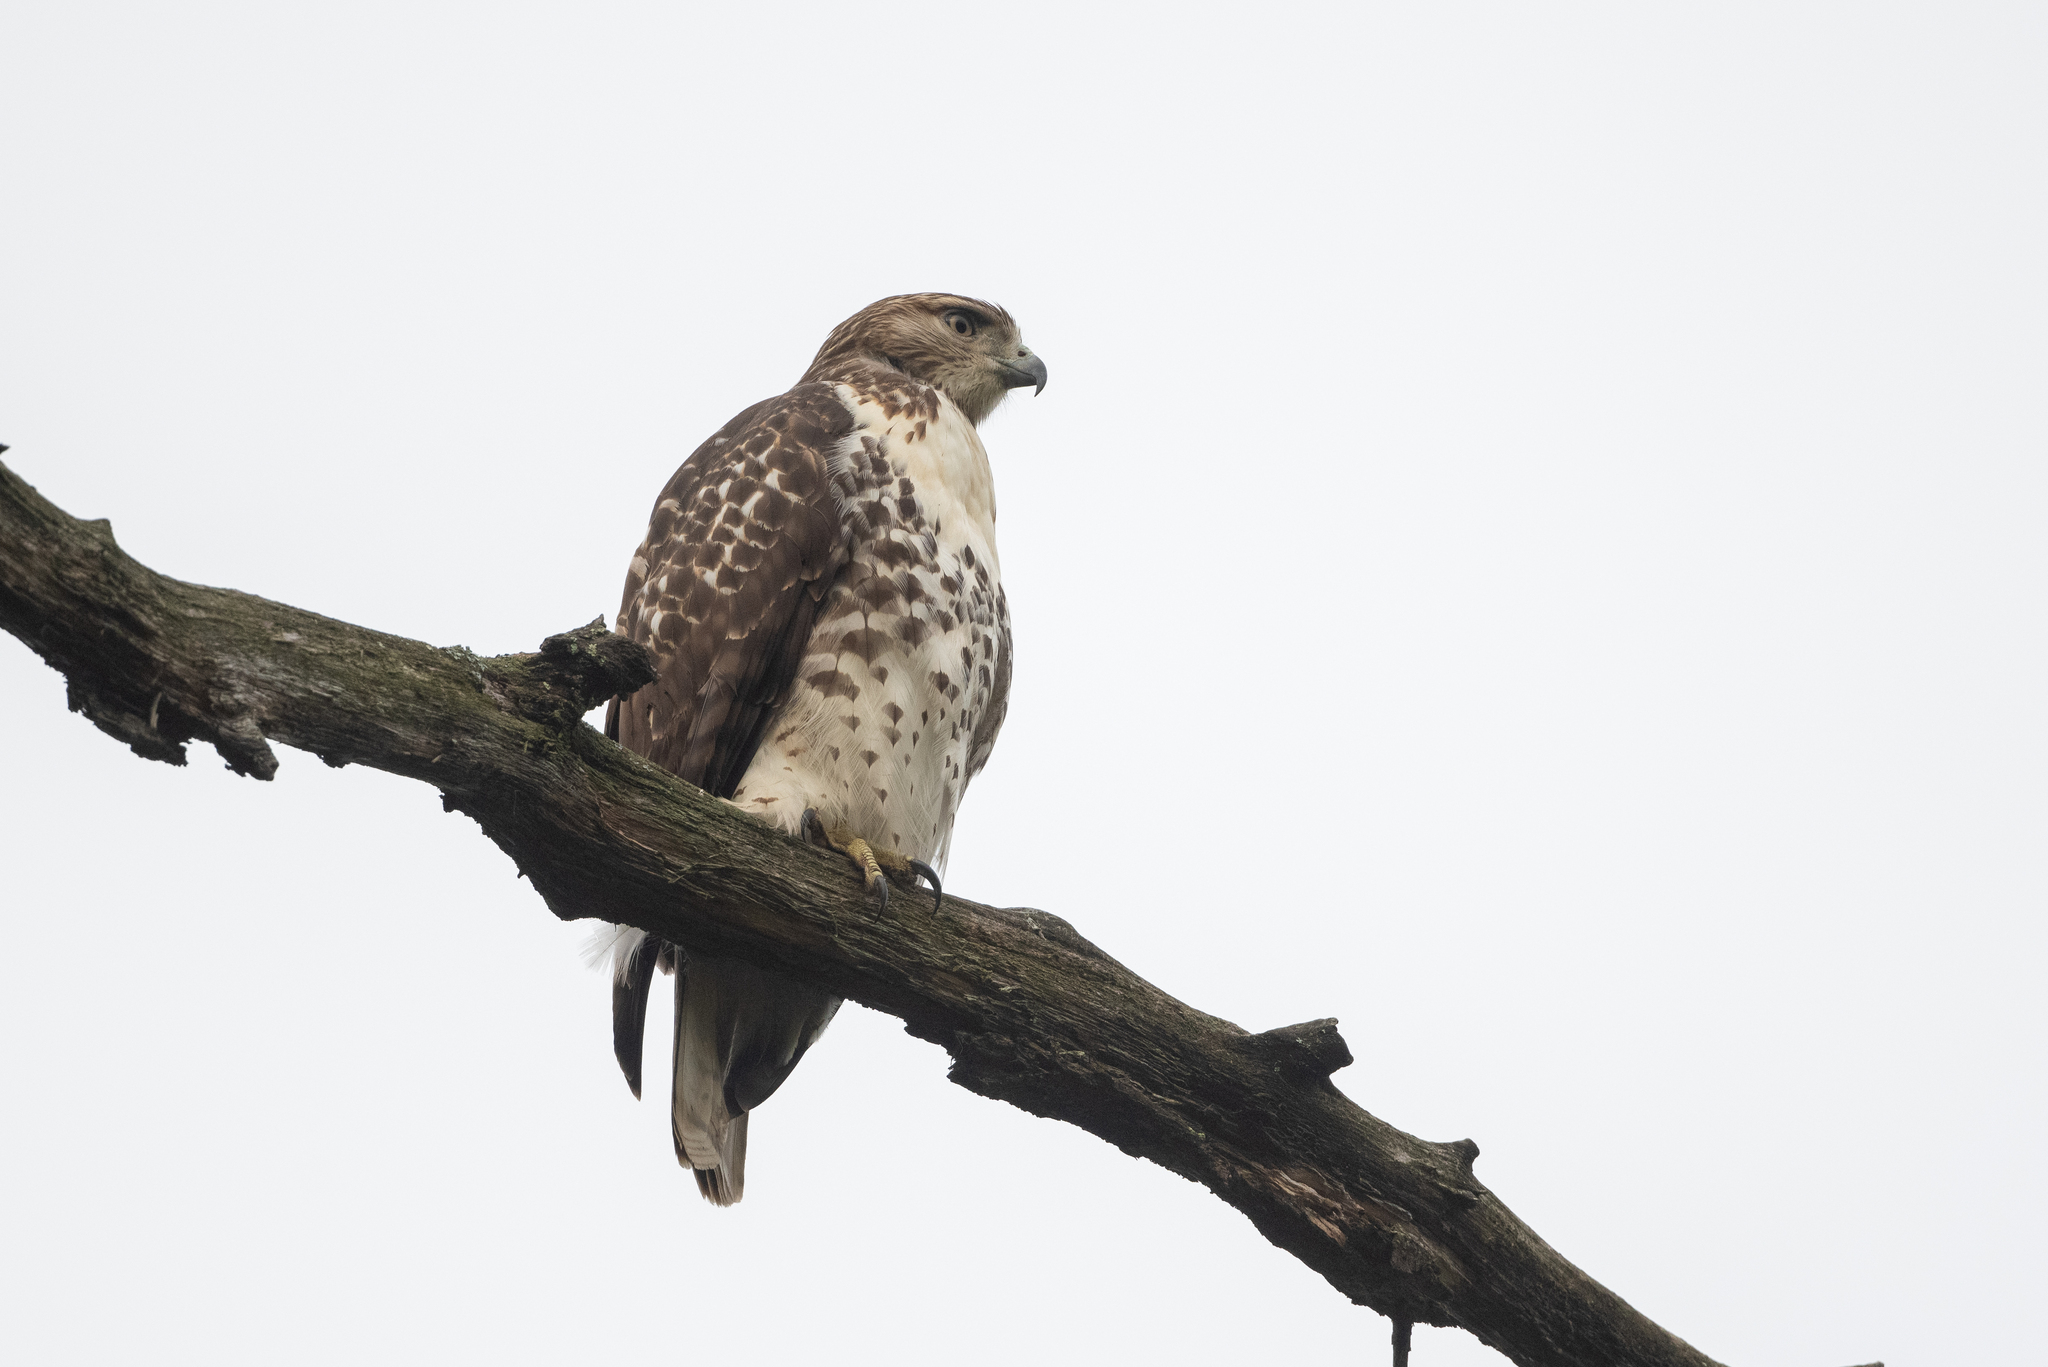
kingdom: Animalia
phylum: Chordata
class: Aves
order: Accipitriformes
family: Accipitridae
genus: Buteo
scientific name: Buteo jamaicensis
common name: Red-tailed hawk
